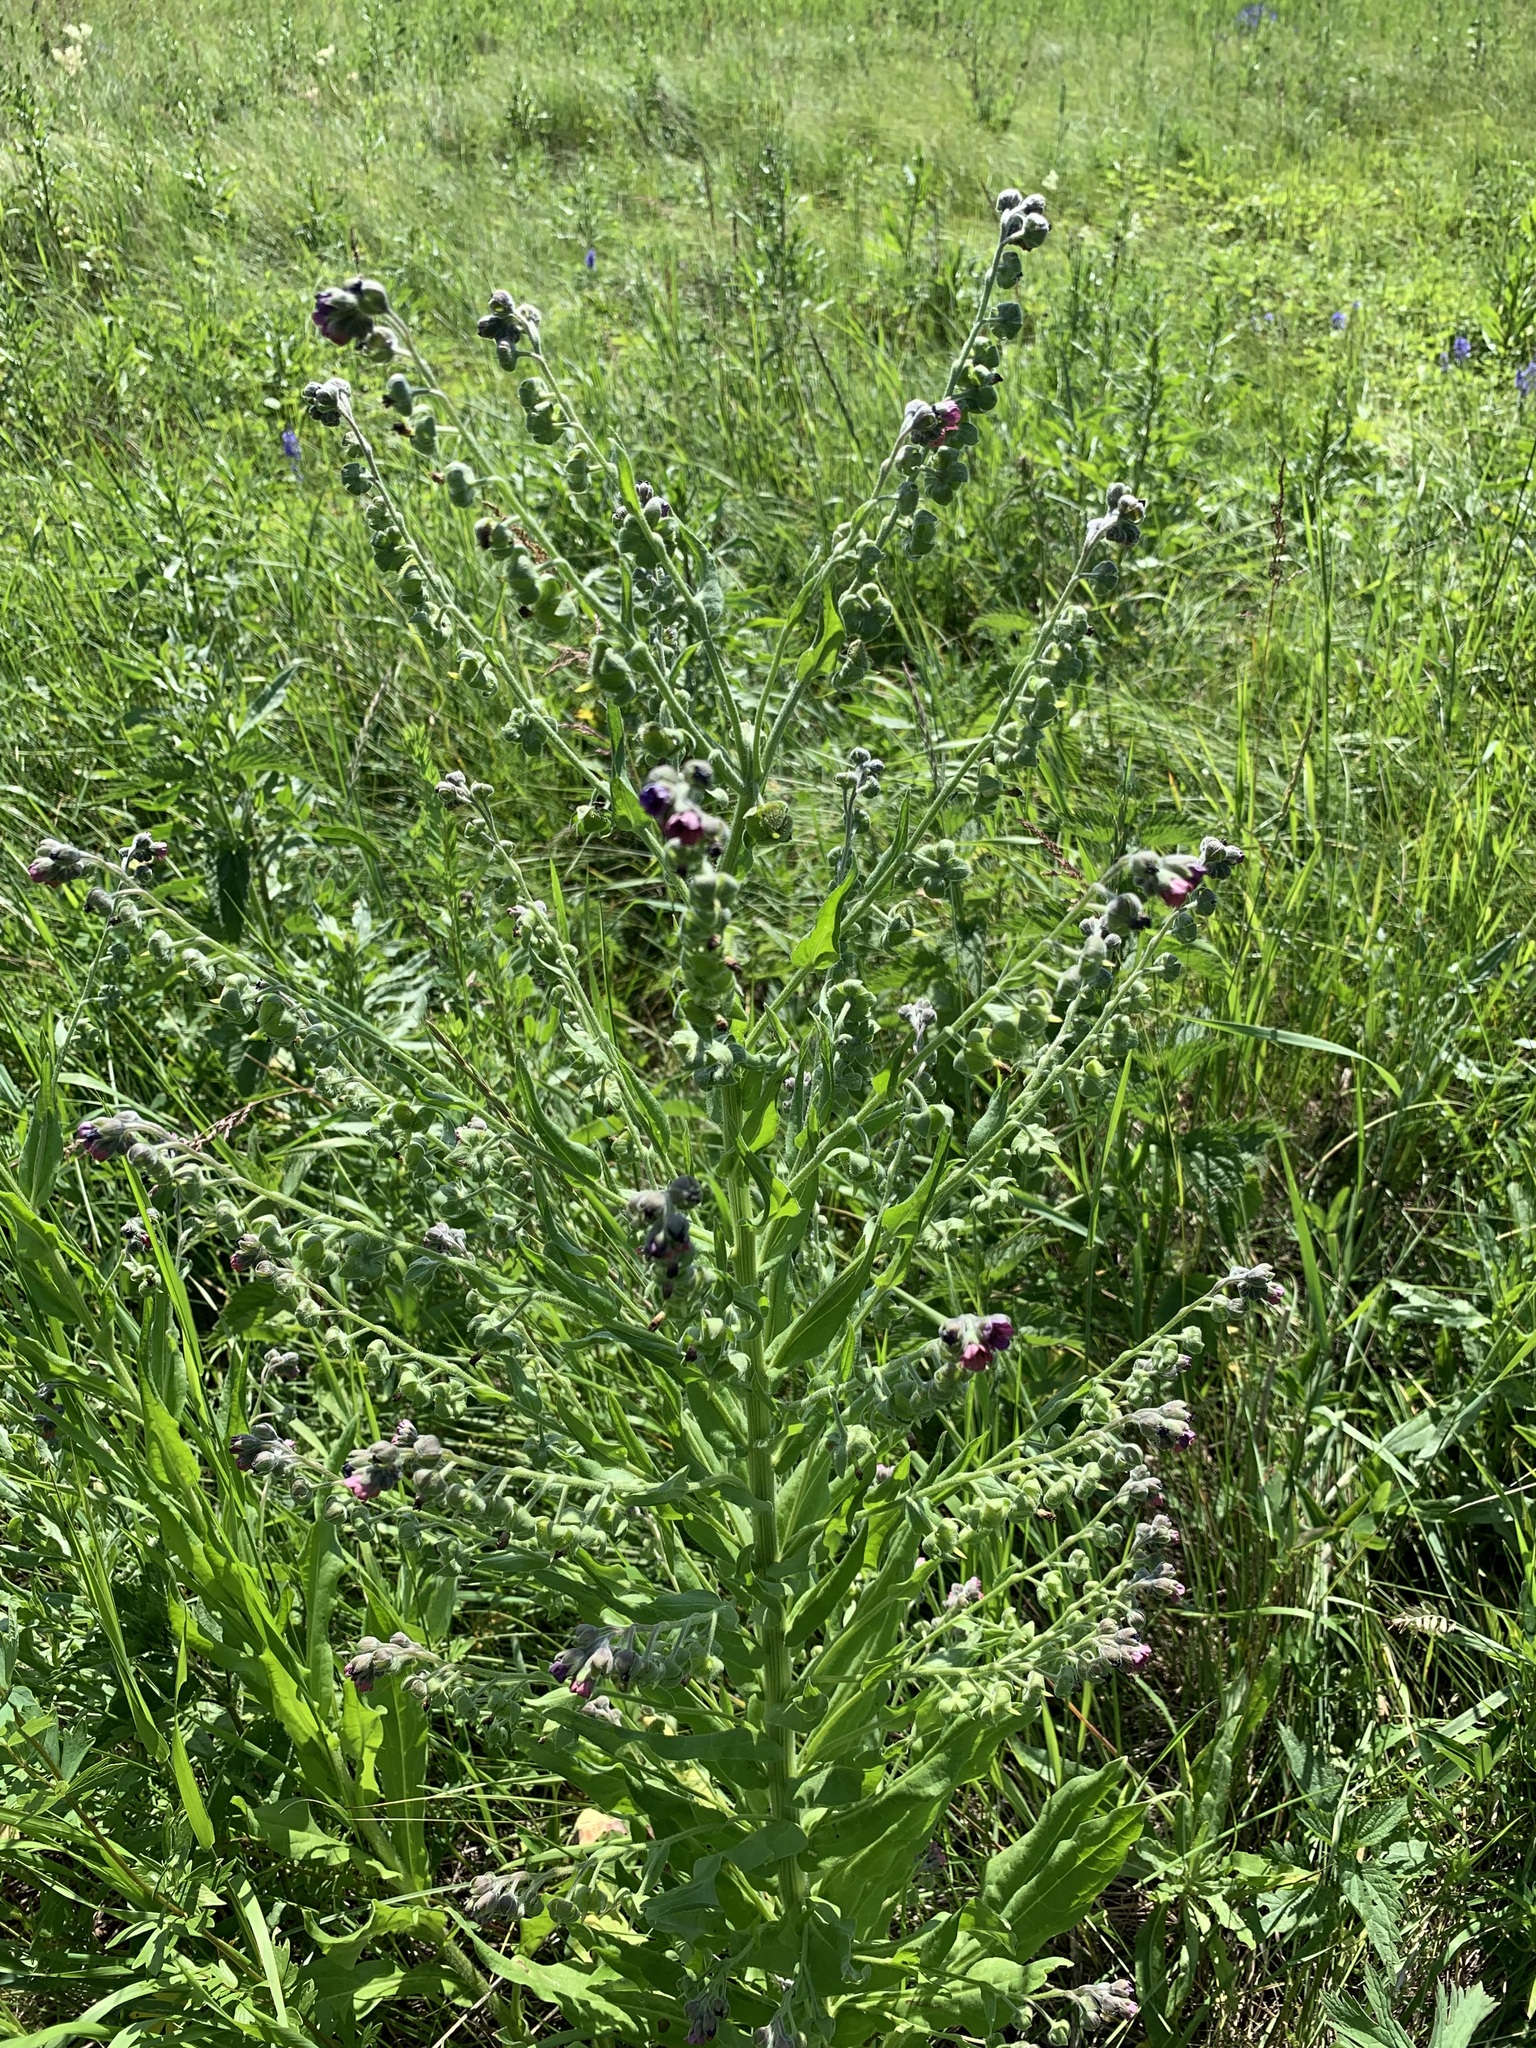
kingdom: Plantae
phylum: Tracheophyta
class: Magnoliopsida
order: Boraginales
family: Boraginaceae
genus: Cynoglossum
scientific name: Cynoglossum officinale
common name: Hound's-tongue
